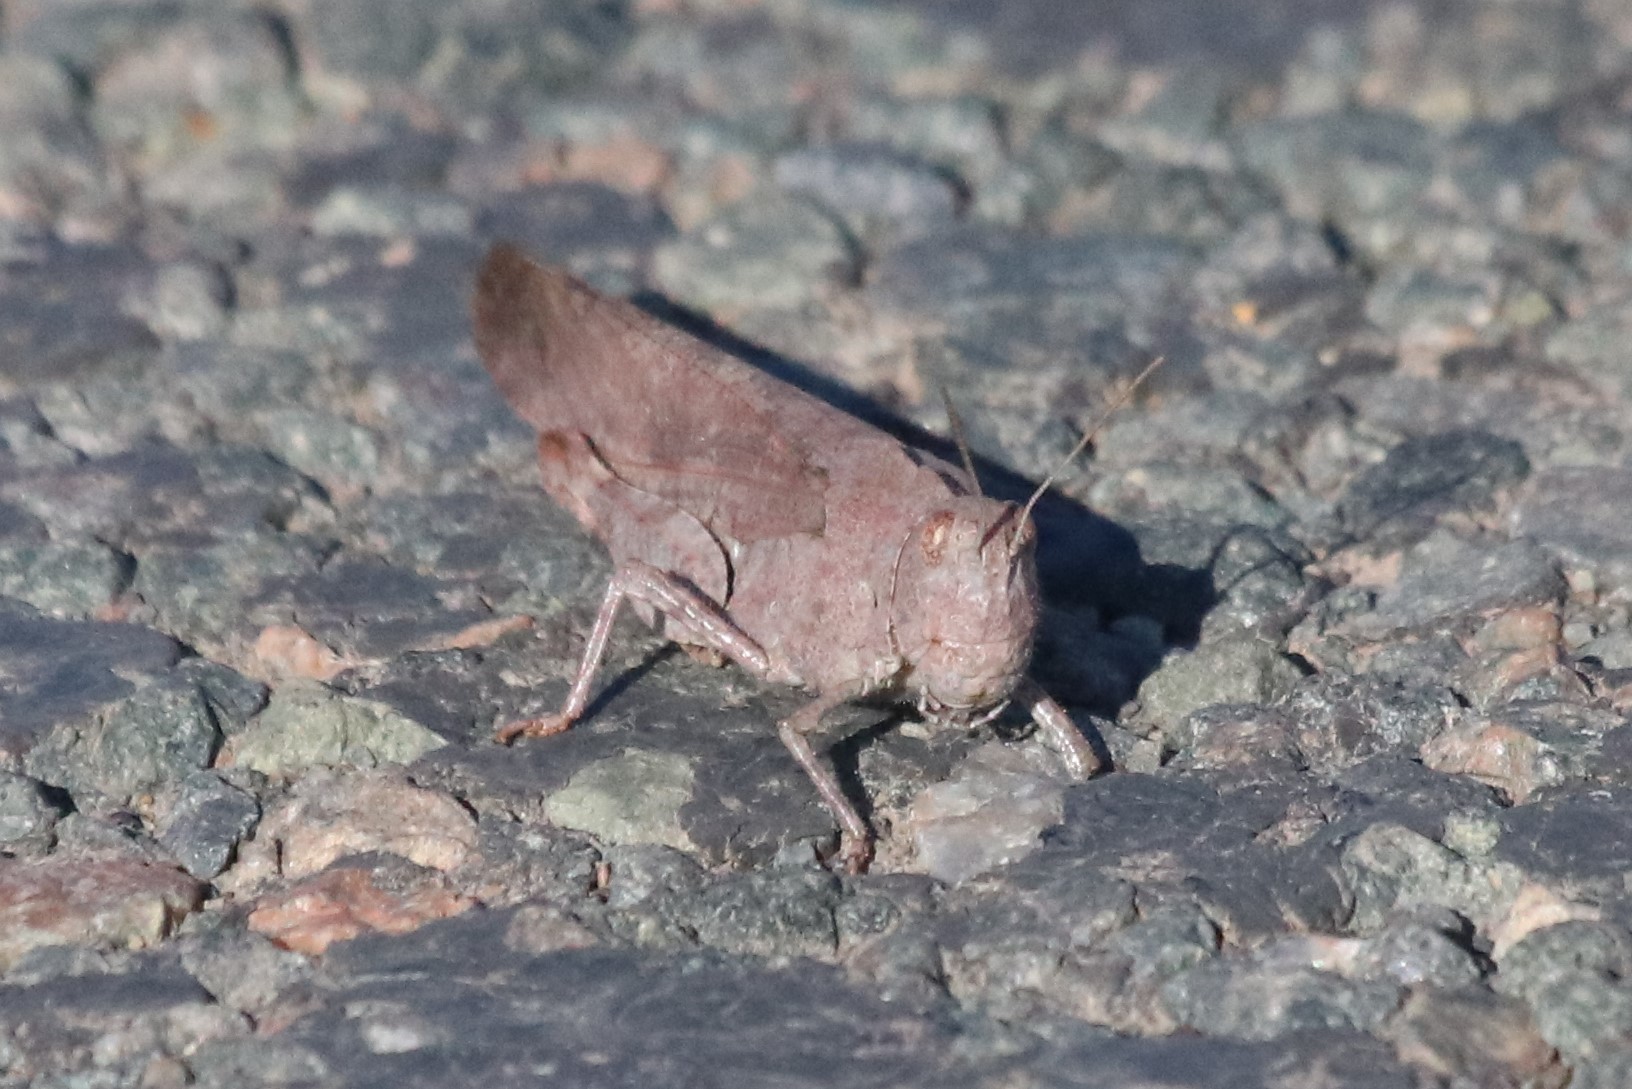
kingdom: Animalia
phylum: Arthropoda
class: Insecta
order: Orthoptera
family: Acrididae
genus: Dissosteira
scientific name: Dissosteira carolina
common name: Carolina grasshopper
